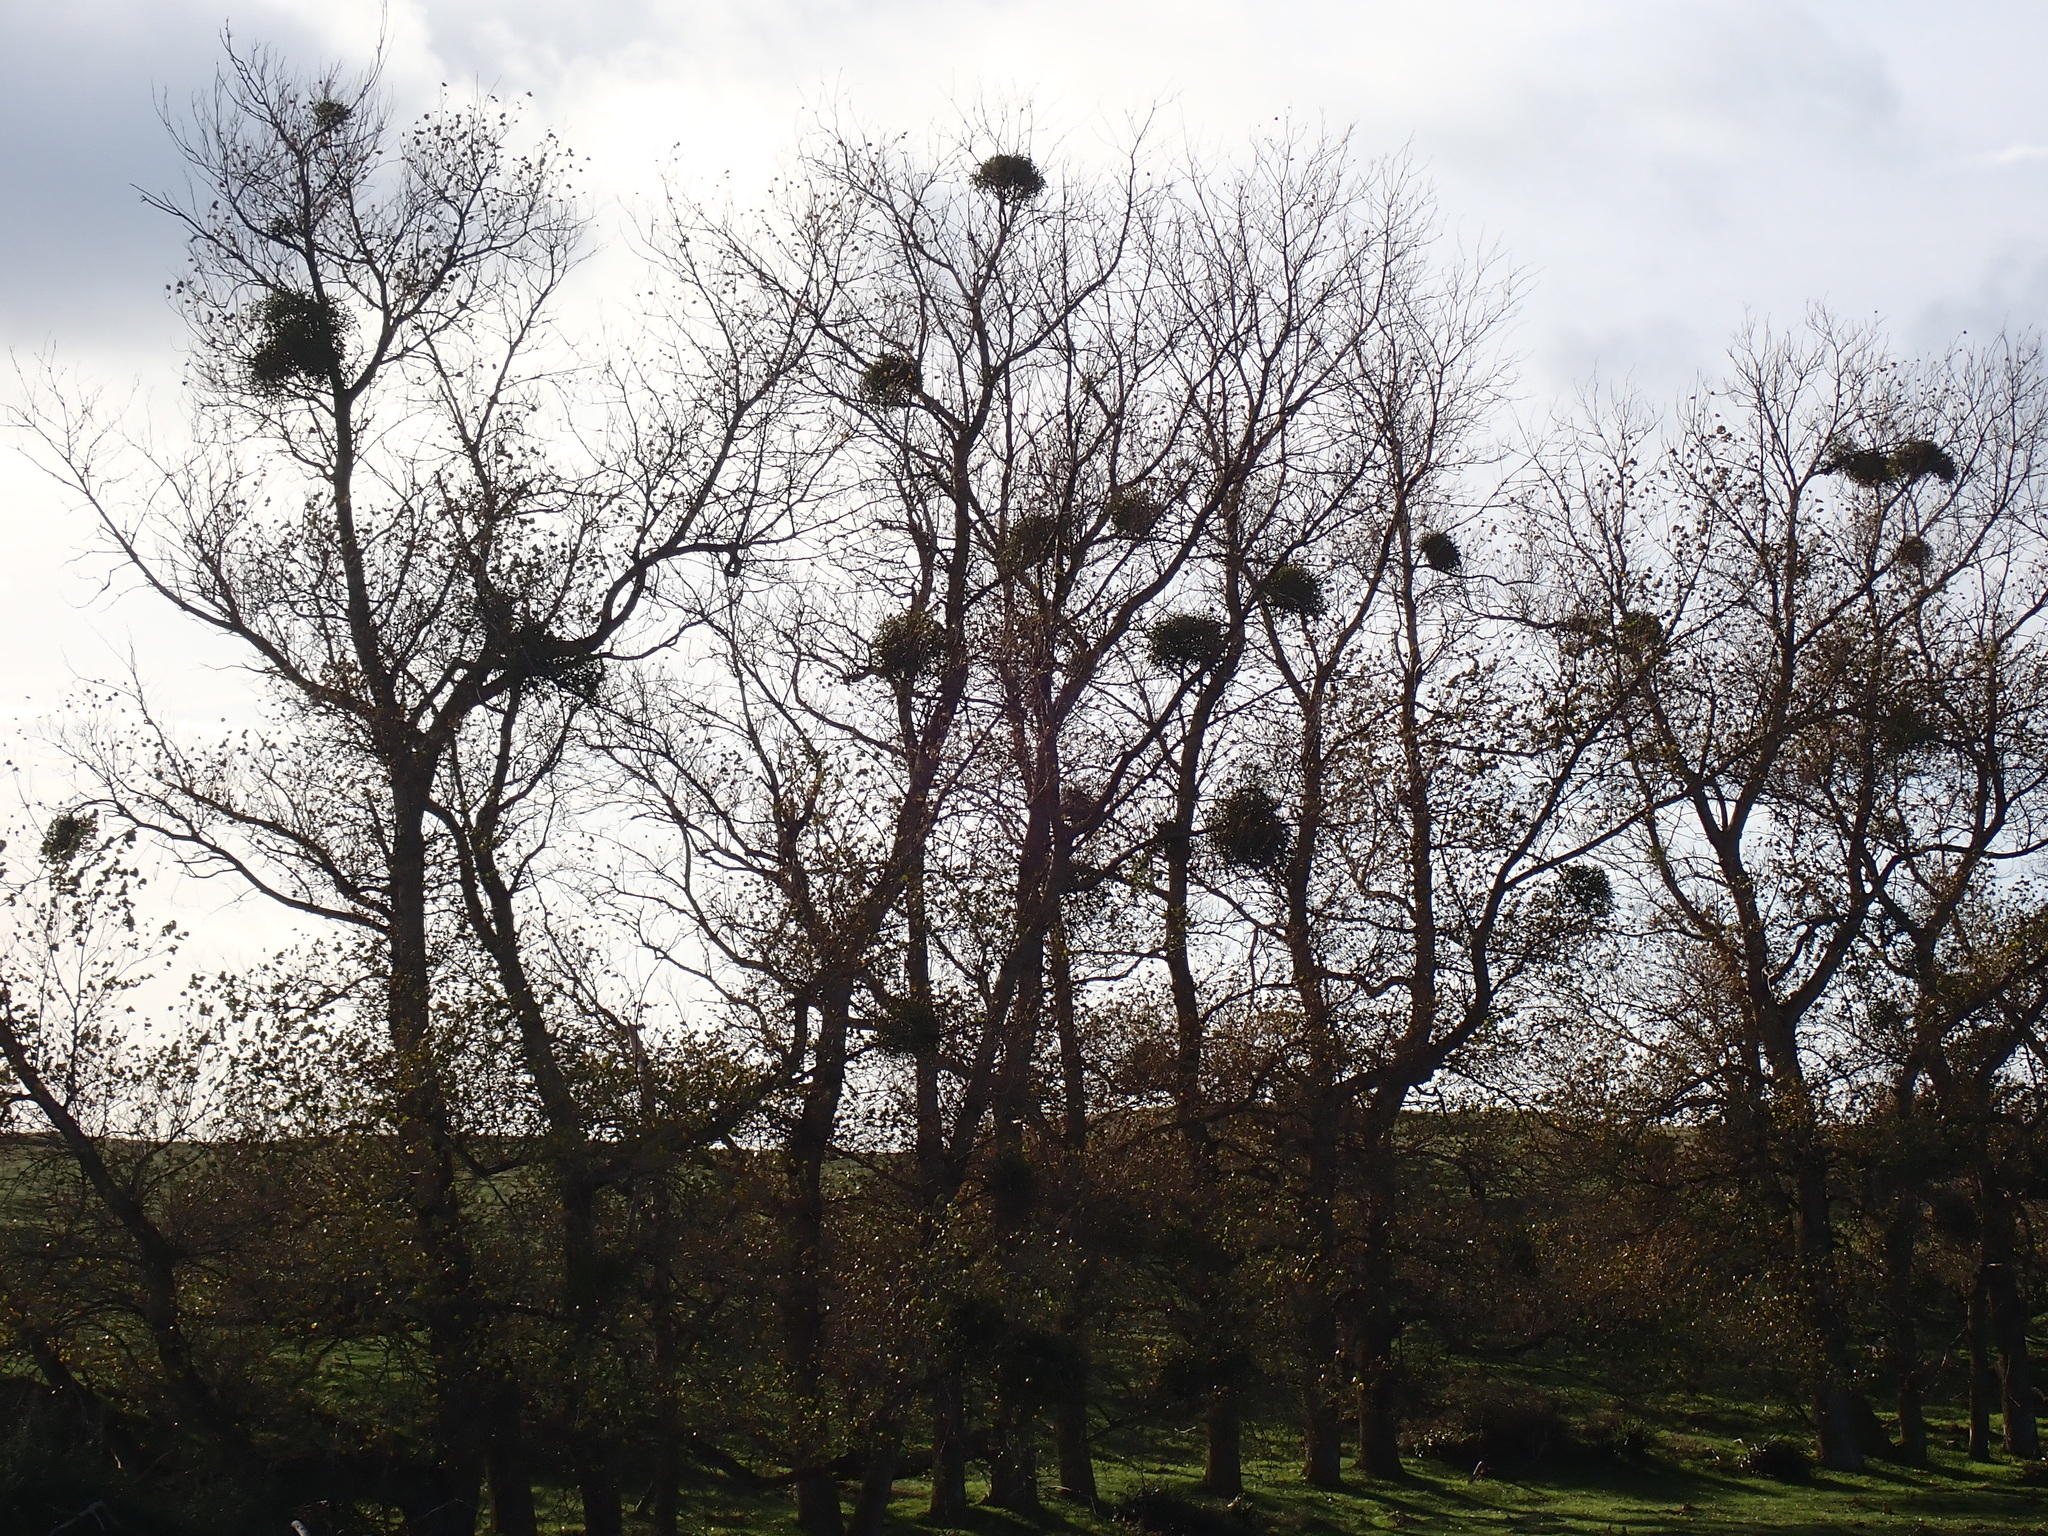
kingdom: Plantae
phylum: Tracheophyta
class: Magnoliopsida
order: Santalales
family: Viscaceae
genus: Viscum
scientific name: Viscum album
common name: Mistletoe
